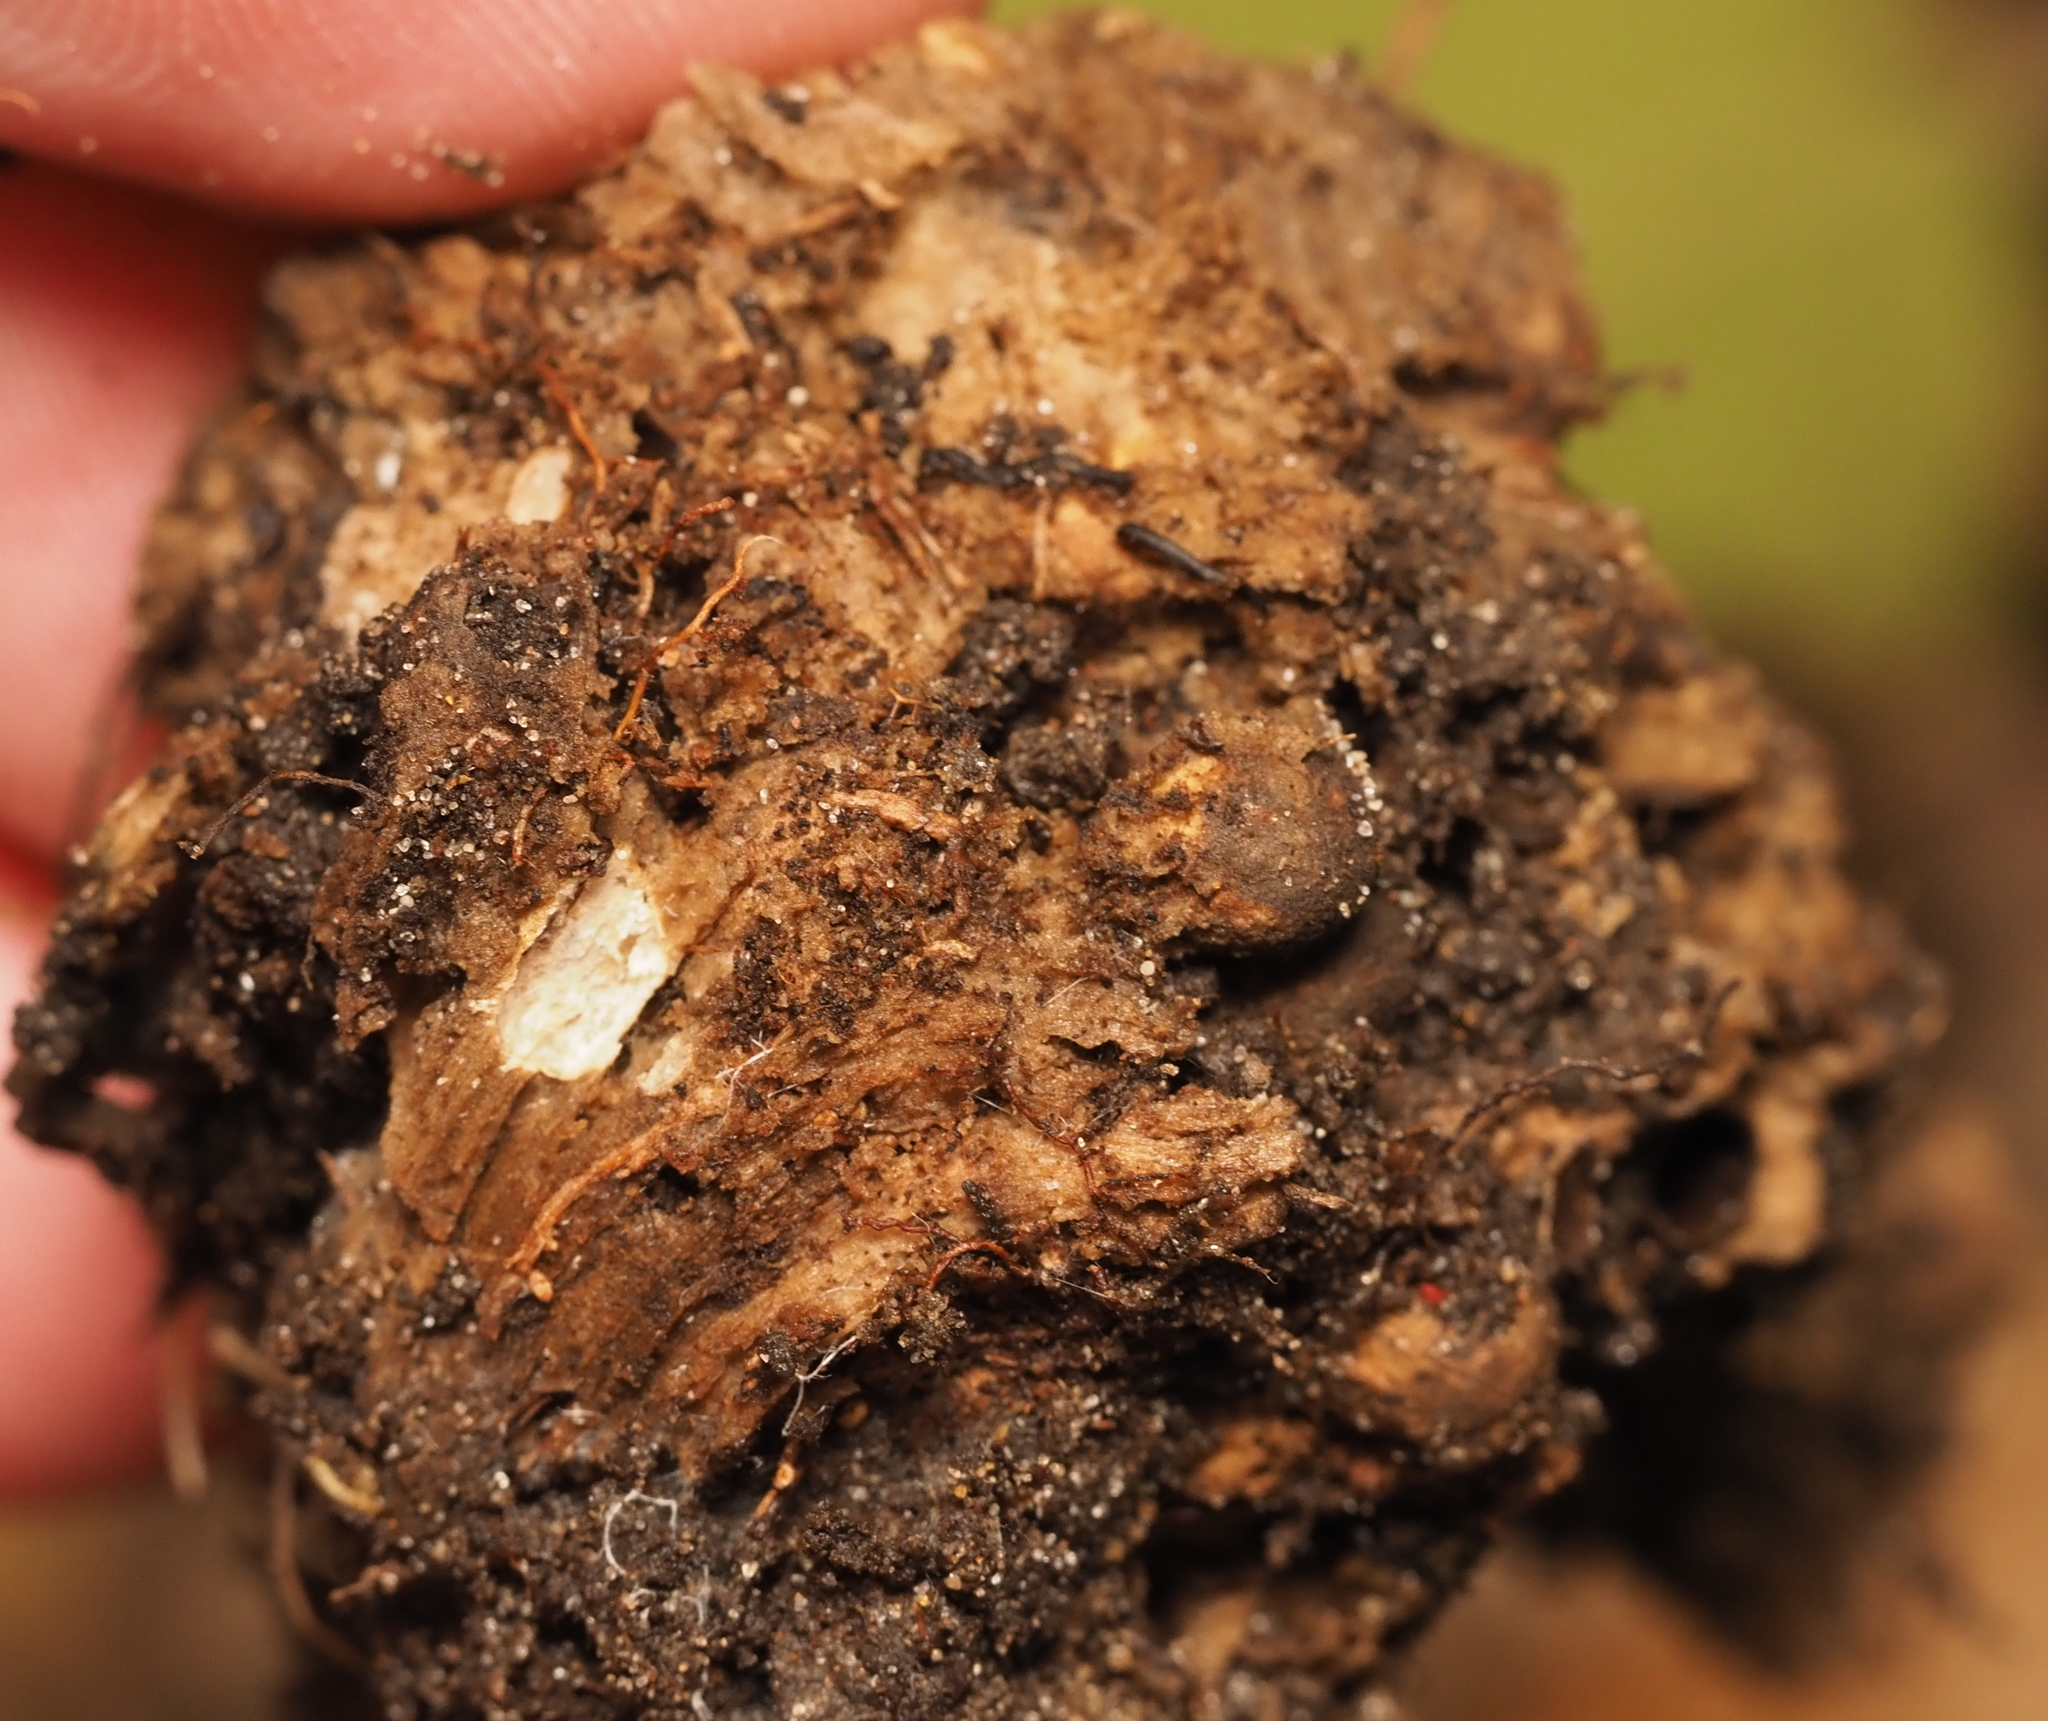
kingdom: Animalia
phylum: Arthropoda
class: Insecta
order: Hymenoptera
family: Cynipidae
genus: Holocynips
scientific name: Holocynips
